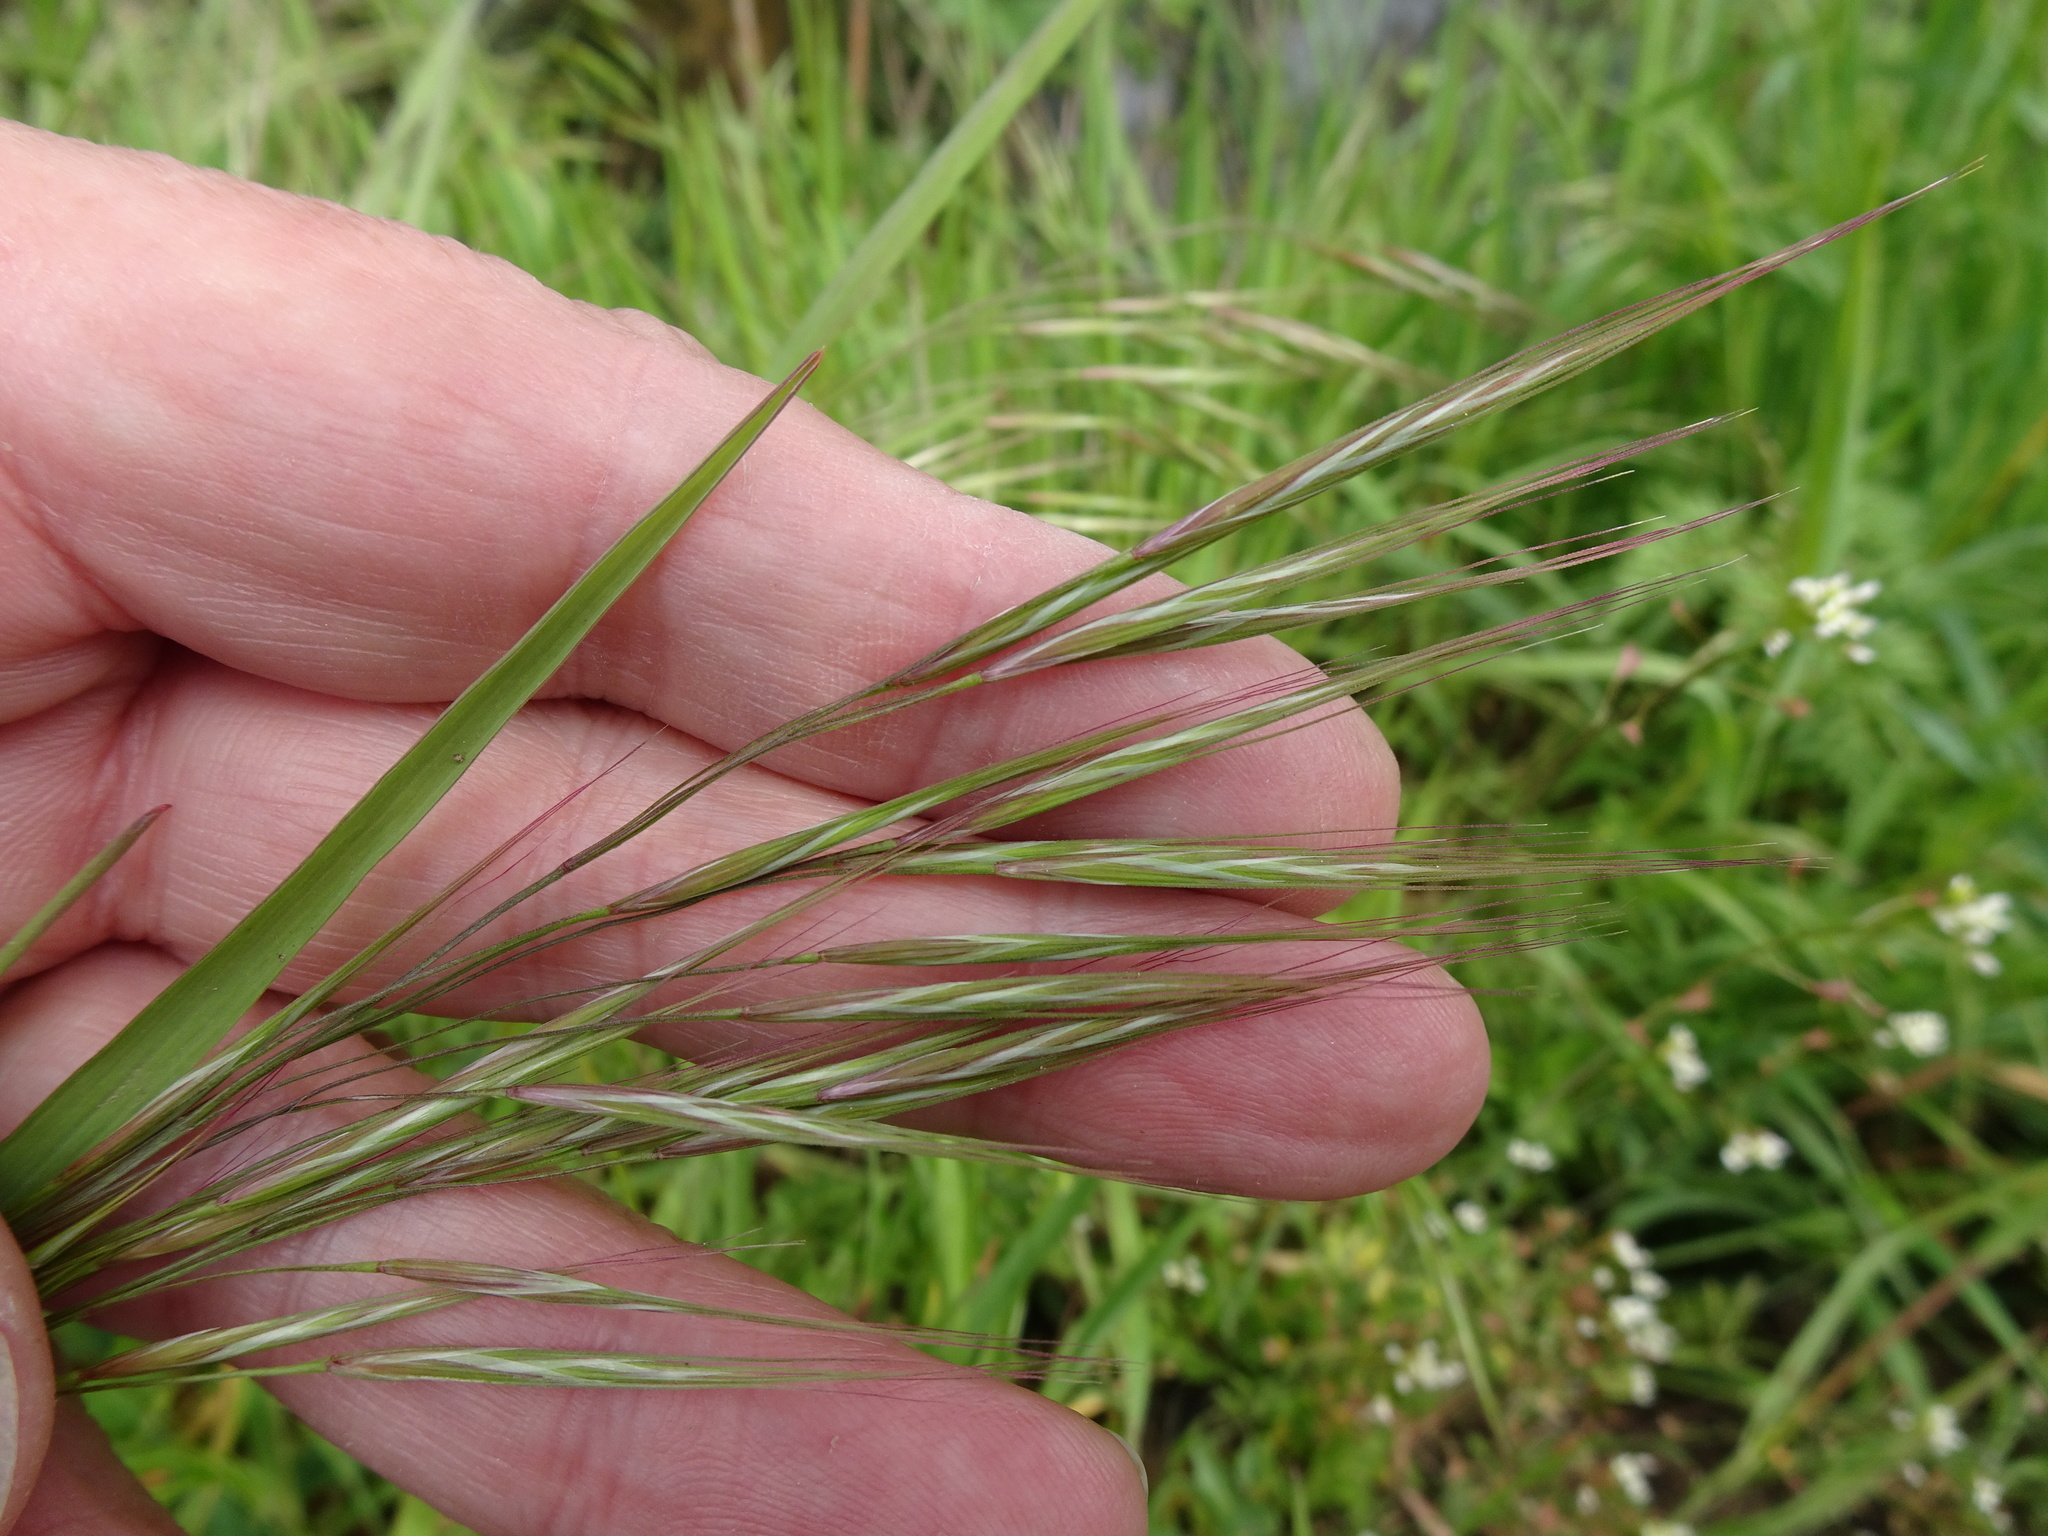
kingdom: Plantae
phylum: Tracheophyta
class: Liliopsida
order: Poales
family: Poaceae
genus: Bromus
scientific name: Bromus sterilis
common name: Poverty brome
